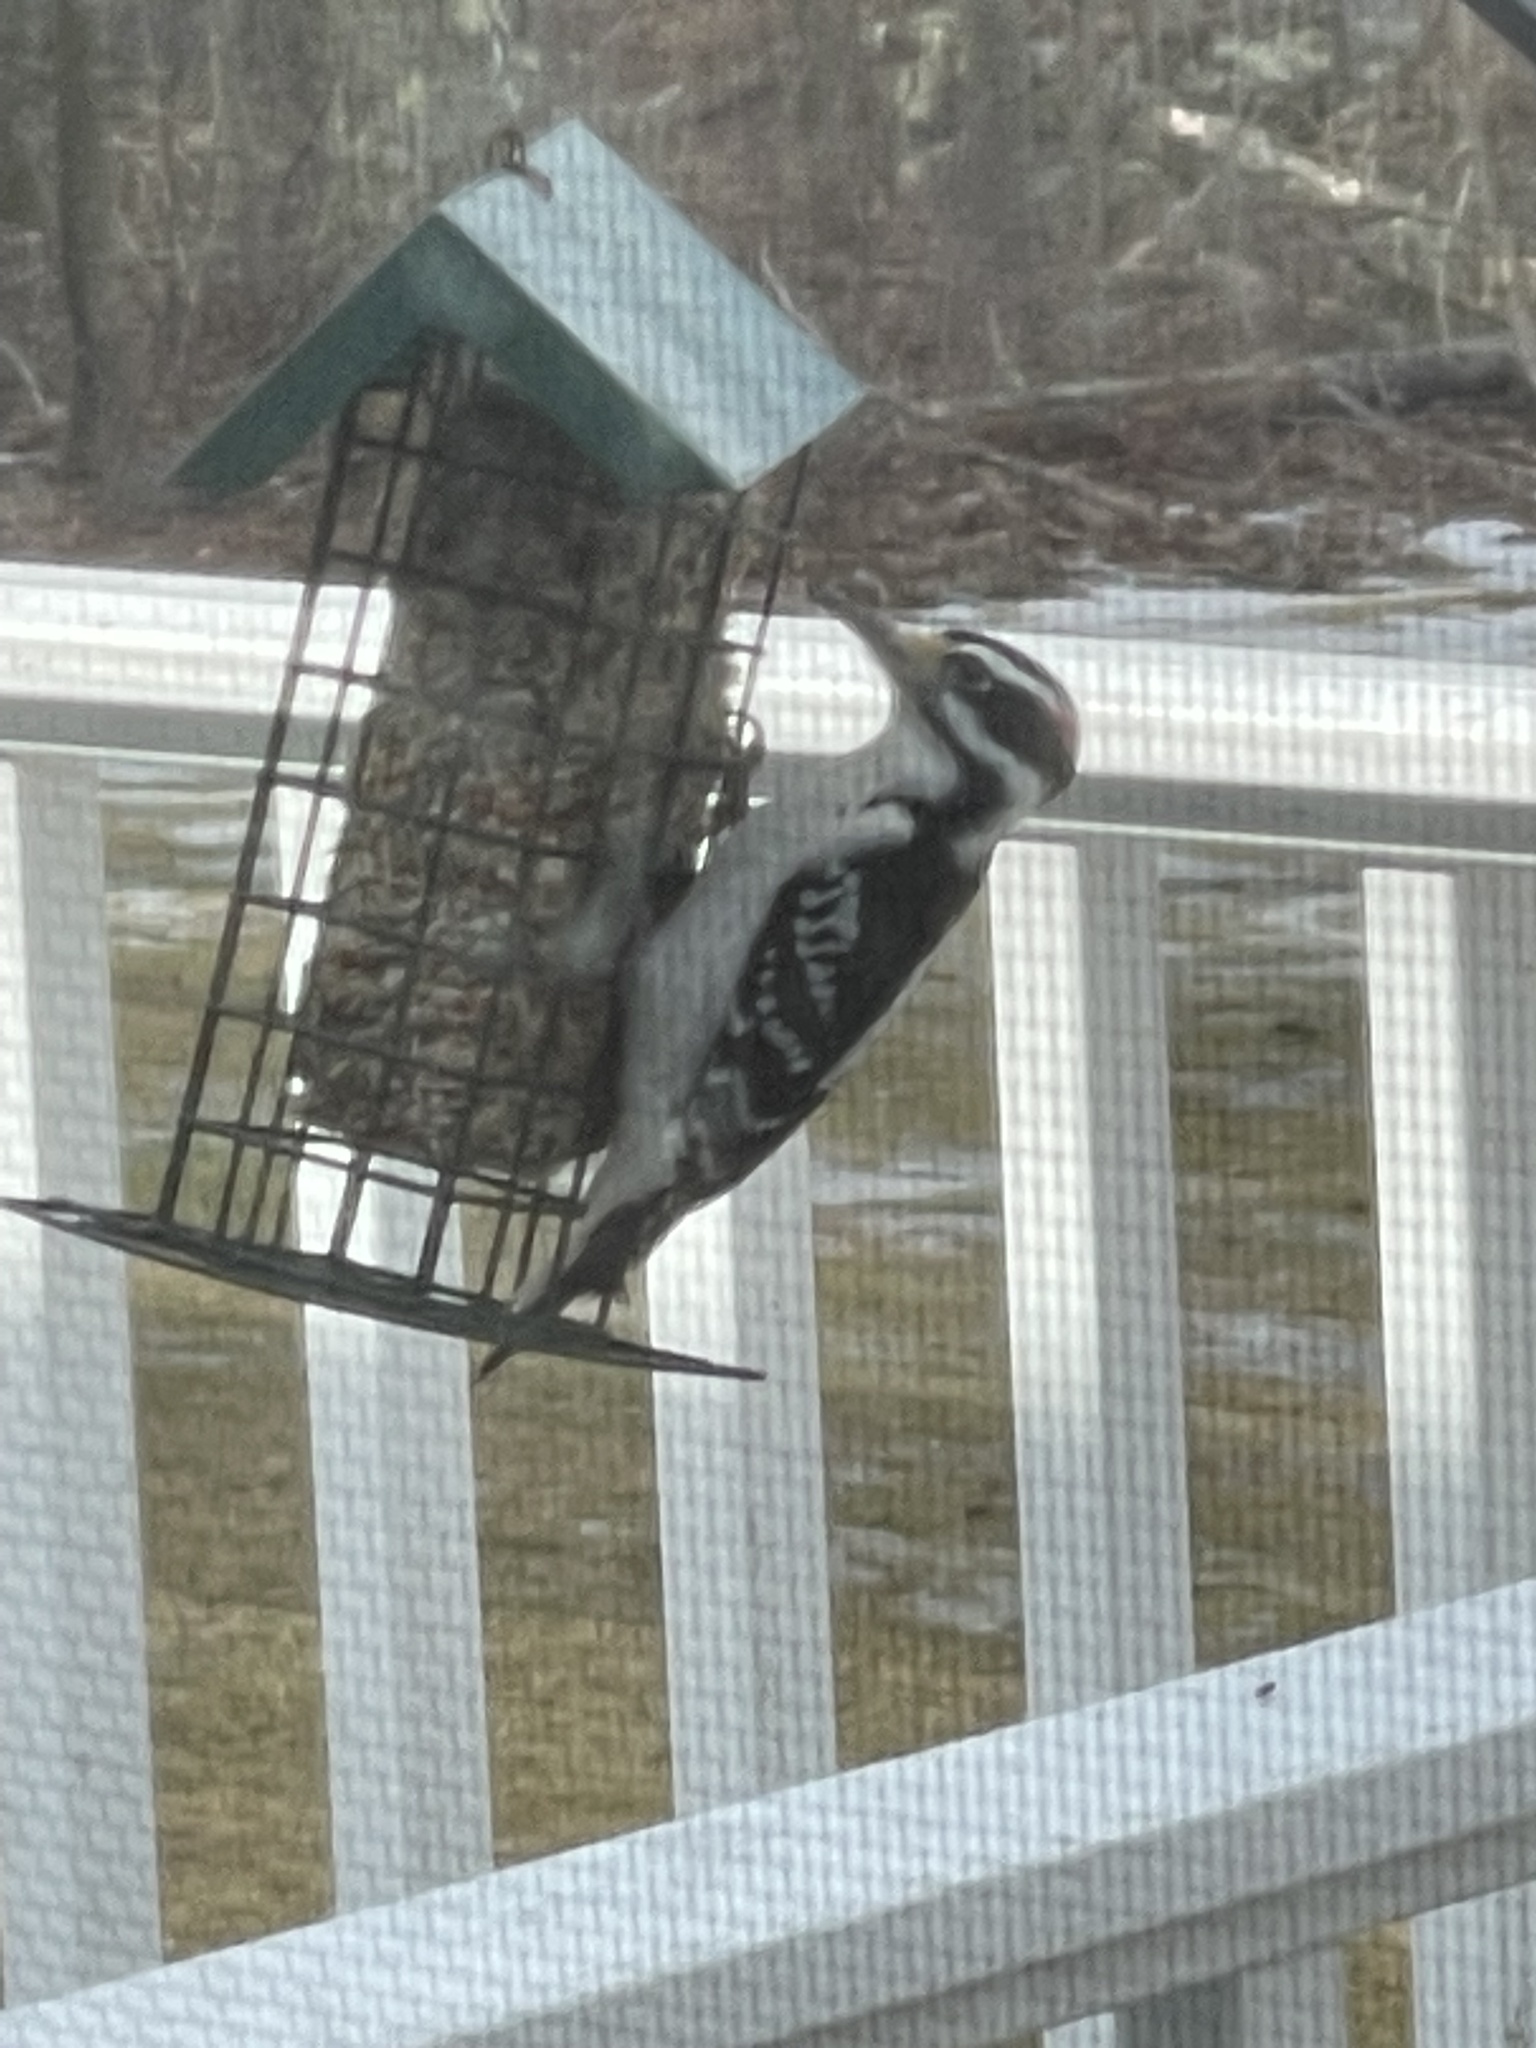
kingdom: Animalia
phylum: Chordata
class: Aves
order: Piciformes
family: Picidae
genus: Leuconotopicus
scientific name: Leuconotopicus villosus
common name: Hairy woodpecker
